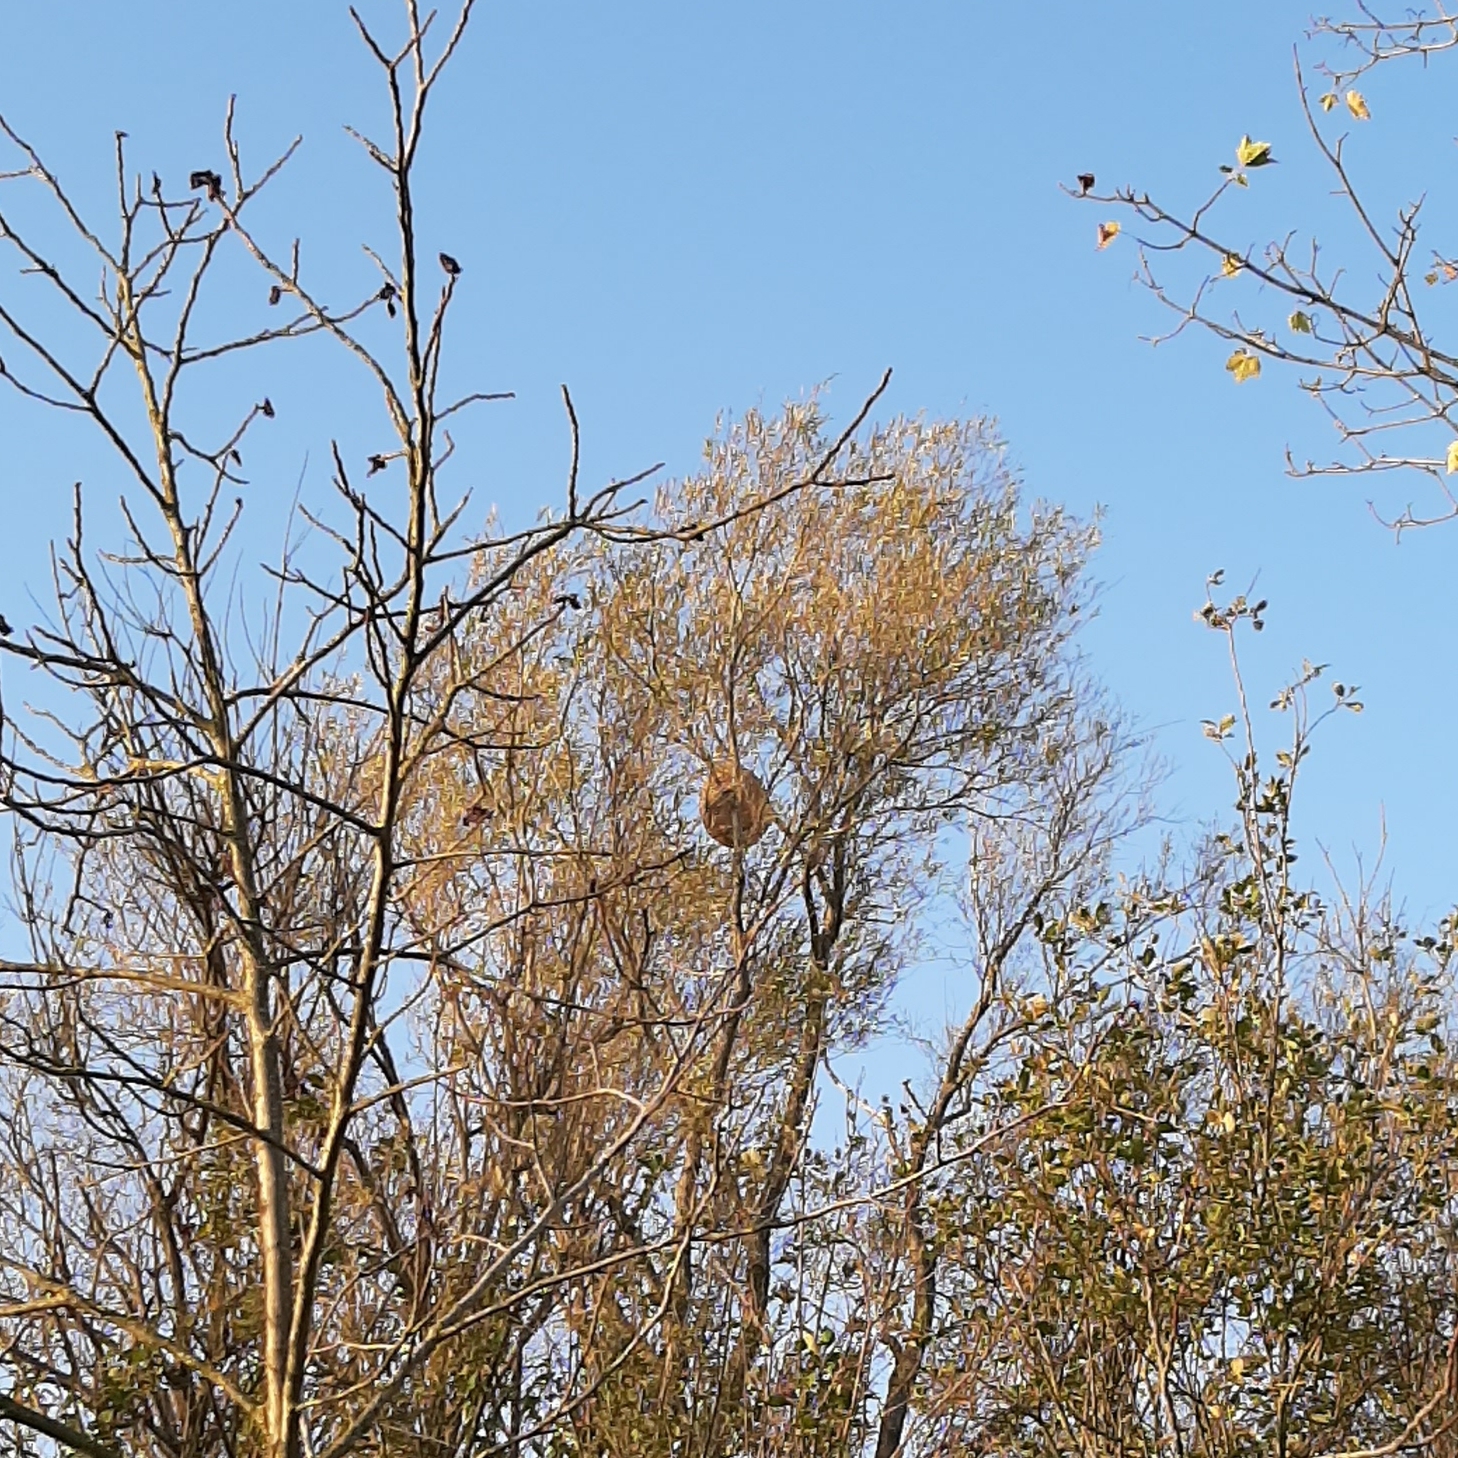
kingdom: Animalia
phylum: Arthropoda
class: Insecta
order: Hymenoptera
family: Vespidae
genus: Vespa
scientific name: Vespa velutina
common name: Asian hornet
